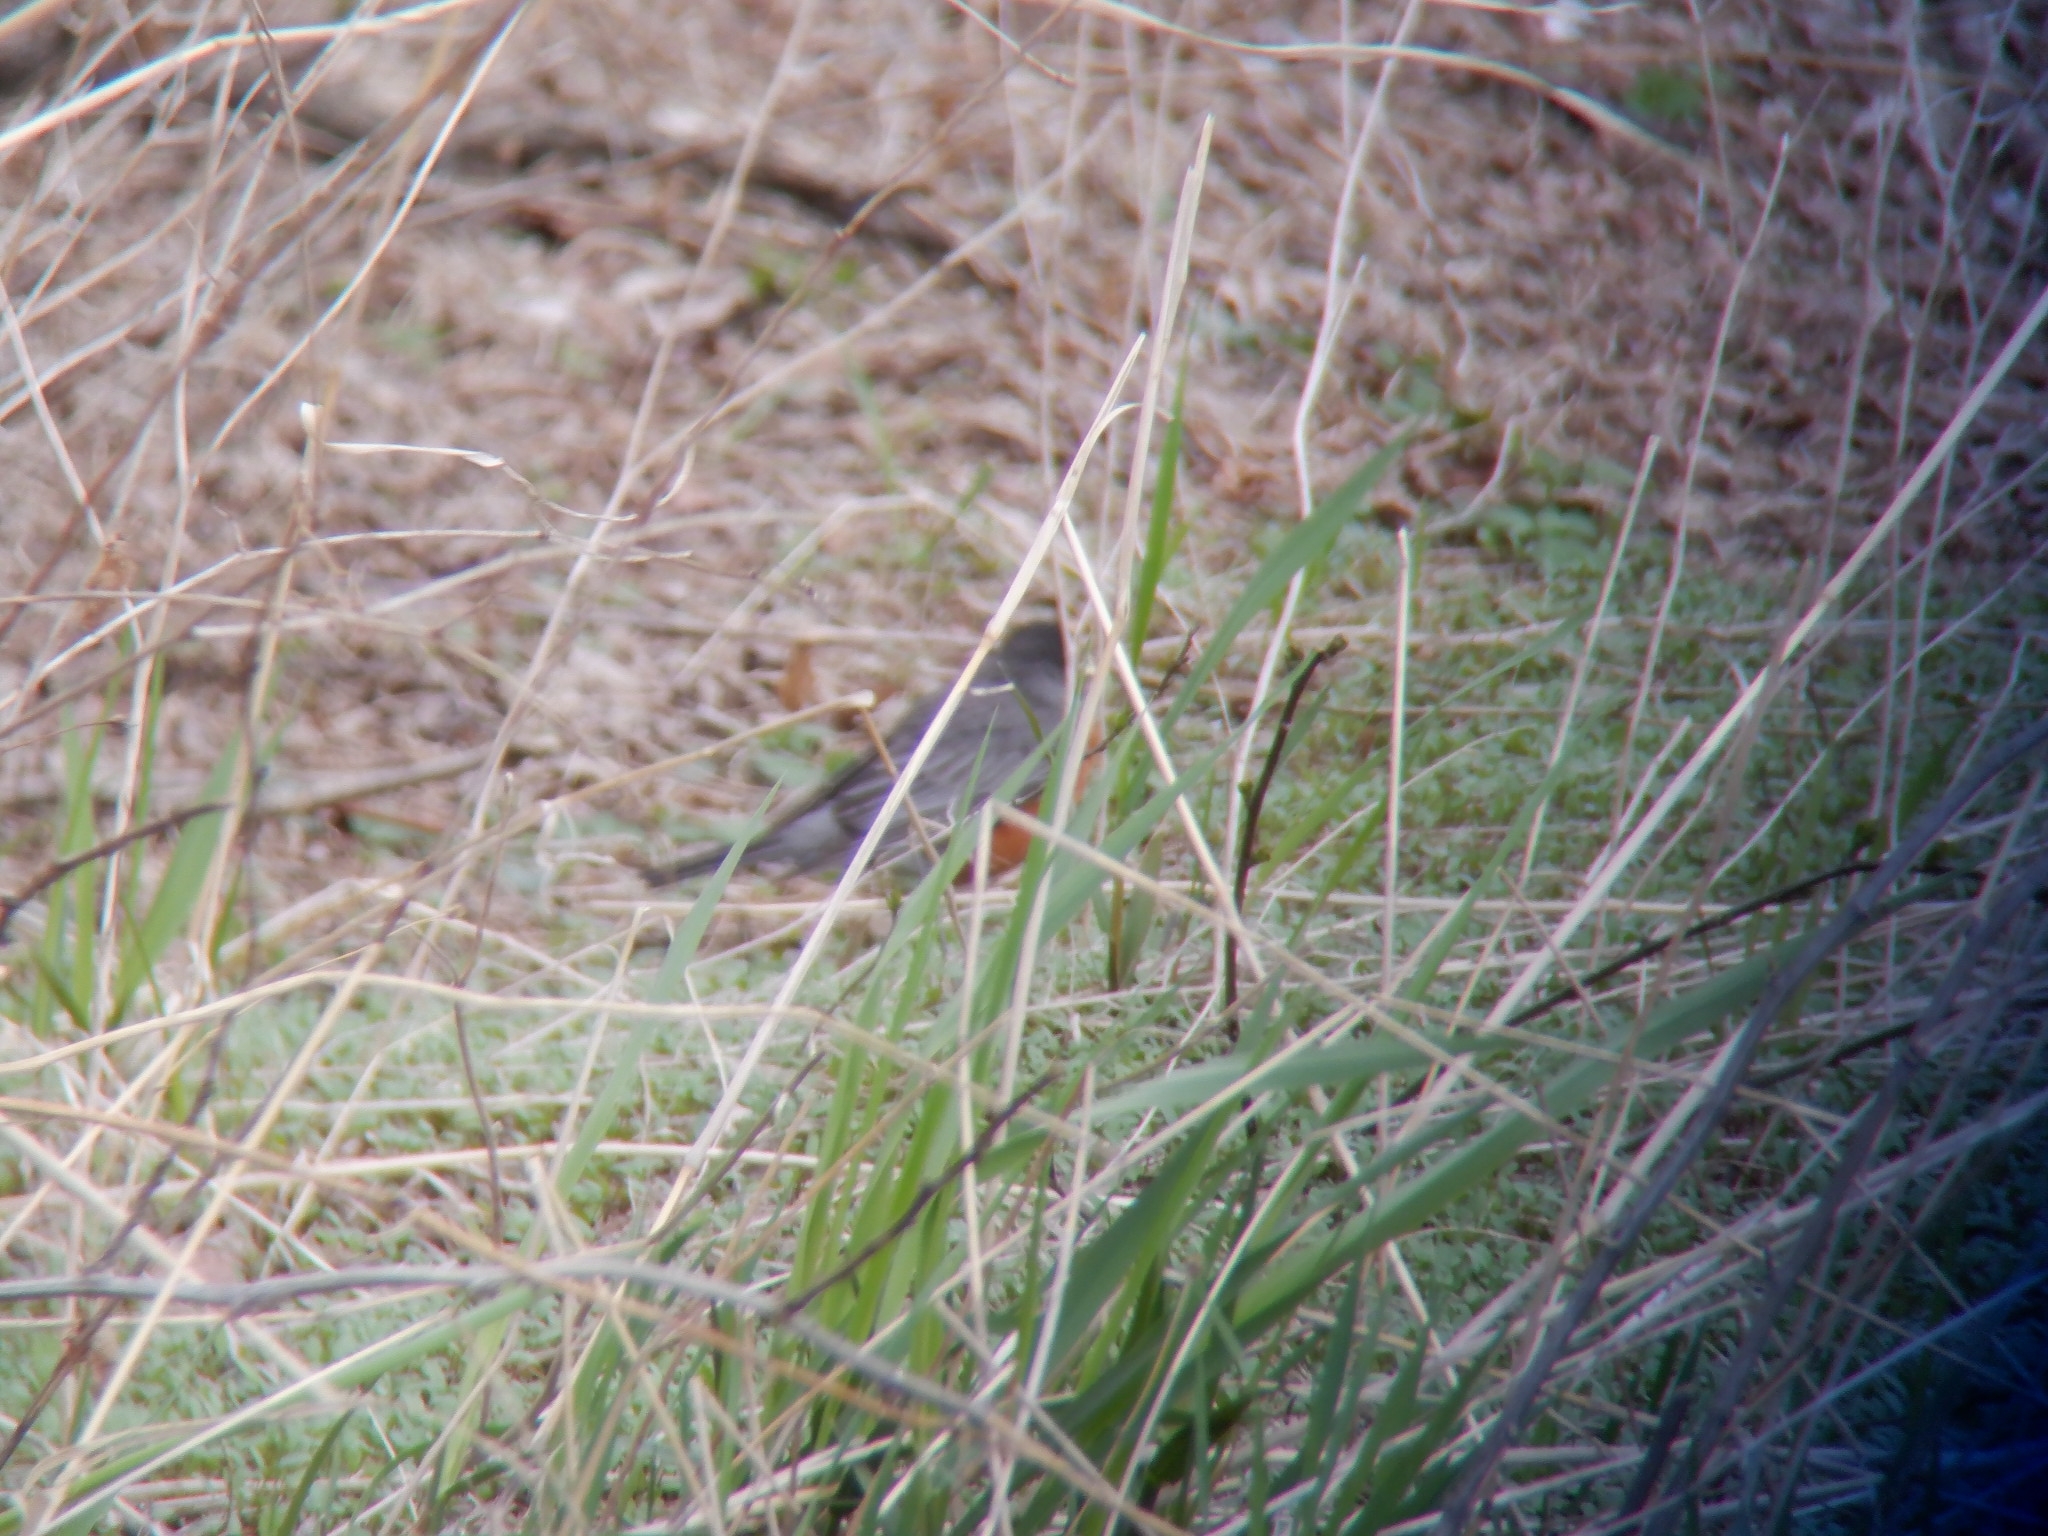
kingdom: Animalia
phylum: Chordata
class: Aves
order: Passeriformes
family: Turdidae
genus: Turdus
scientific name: Turdus migratorius
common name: American robin
